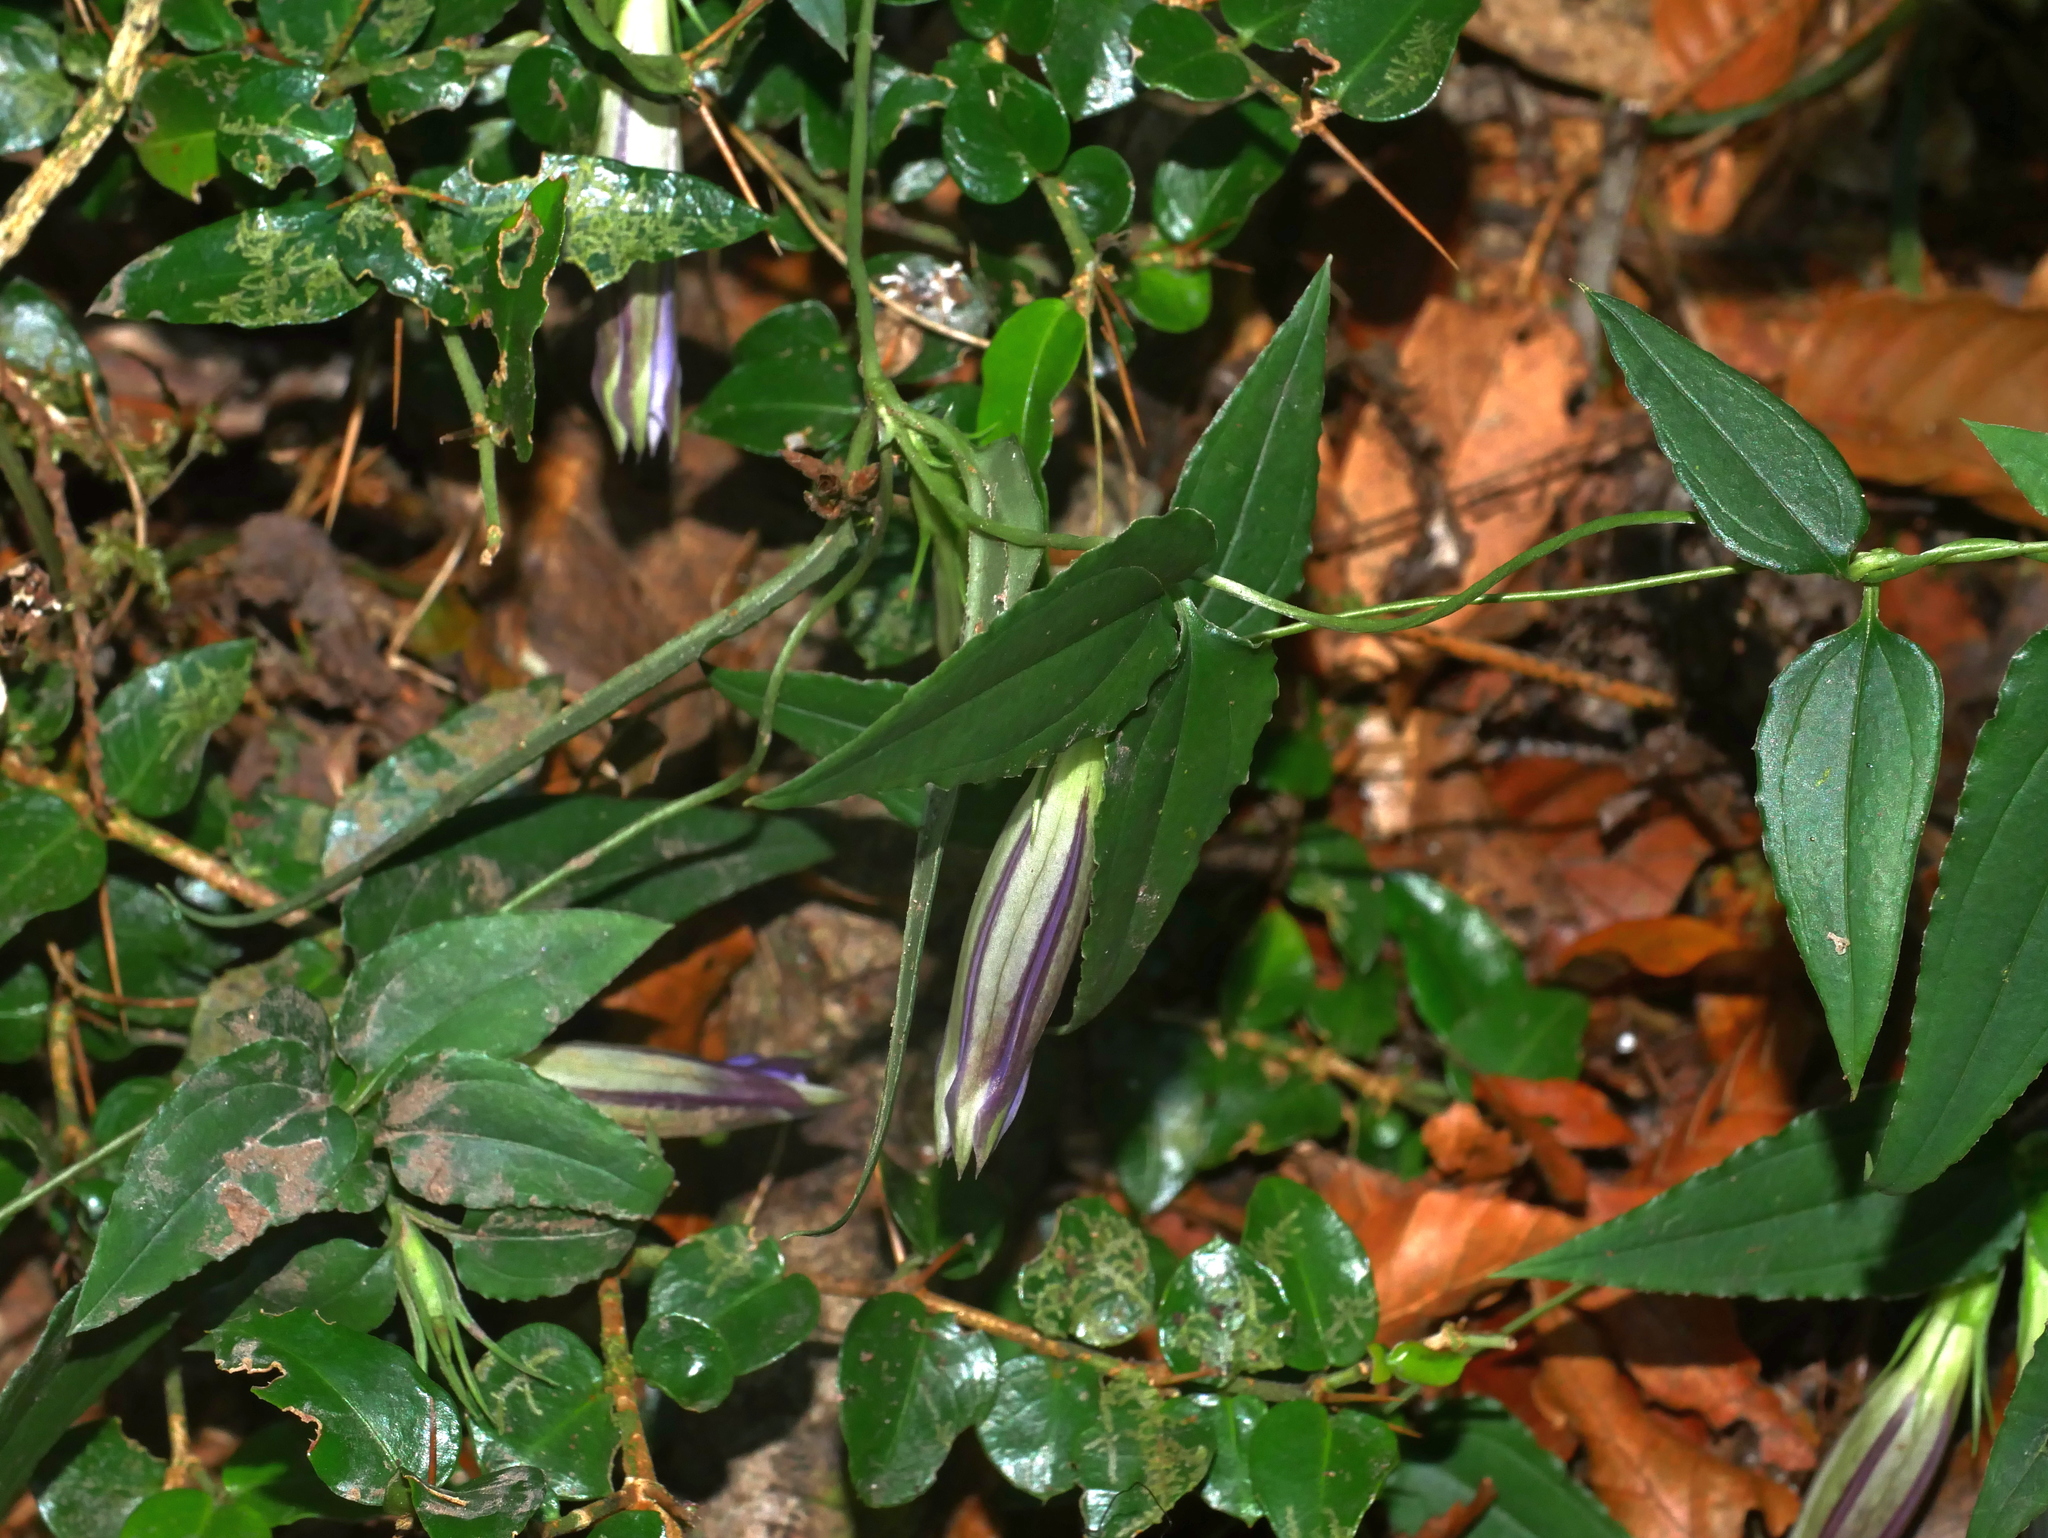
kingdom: Plantae
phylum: Tracheophyta
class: Magnoliopsida
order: Gentianales
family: Gentianaceae
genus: Tripterospermum
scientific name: Tripterospermum lanceolatum
